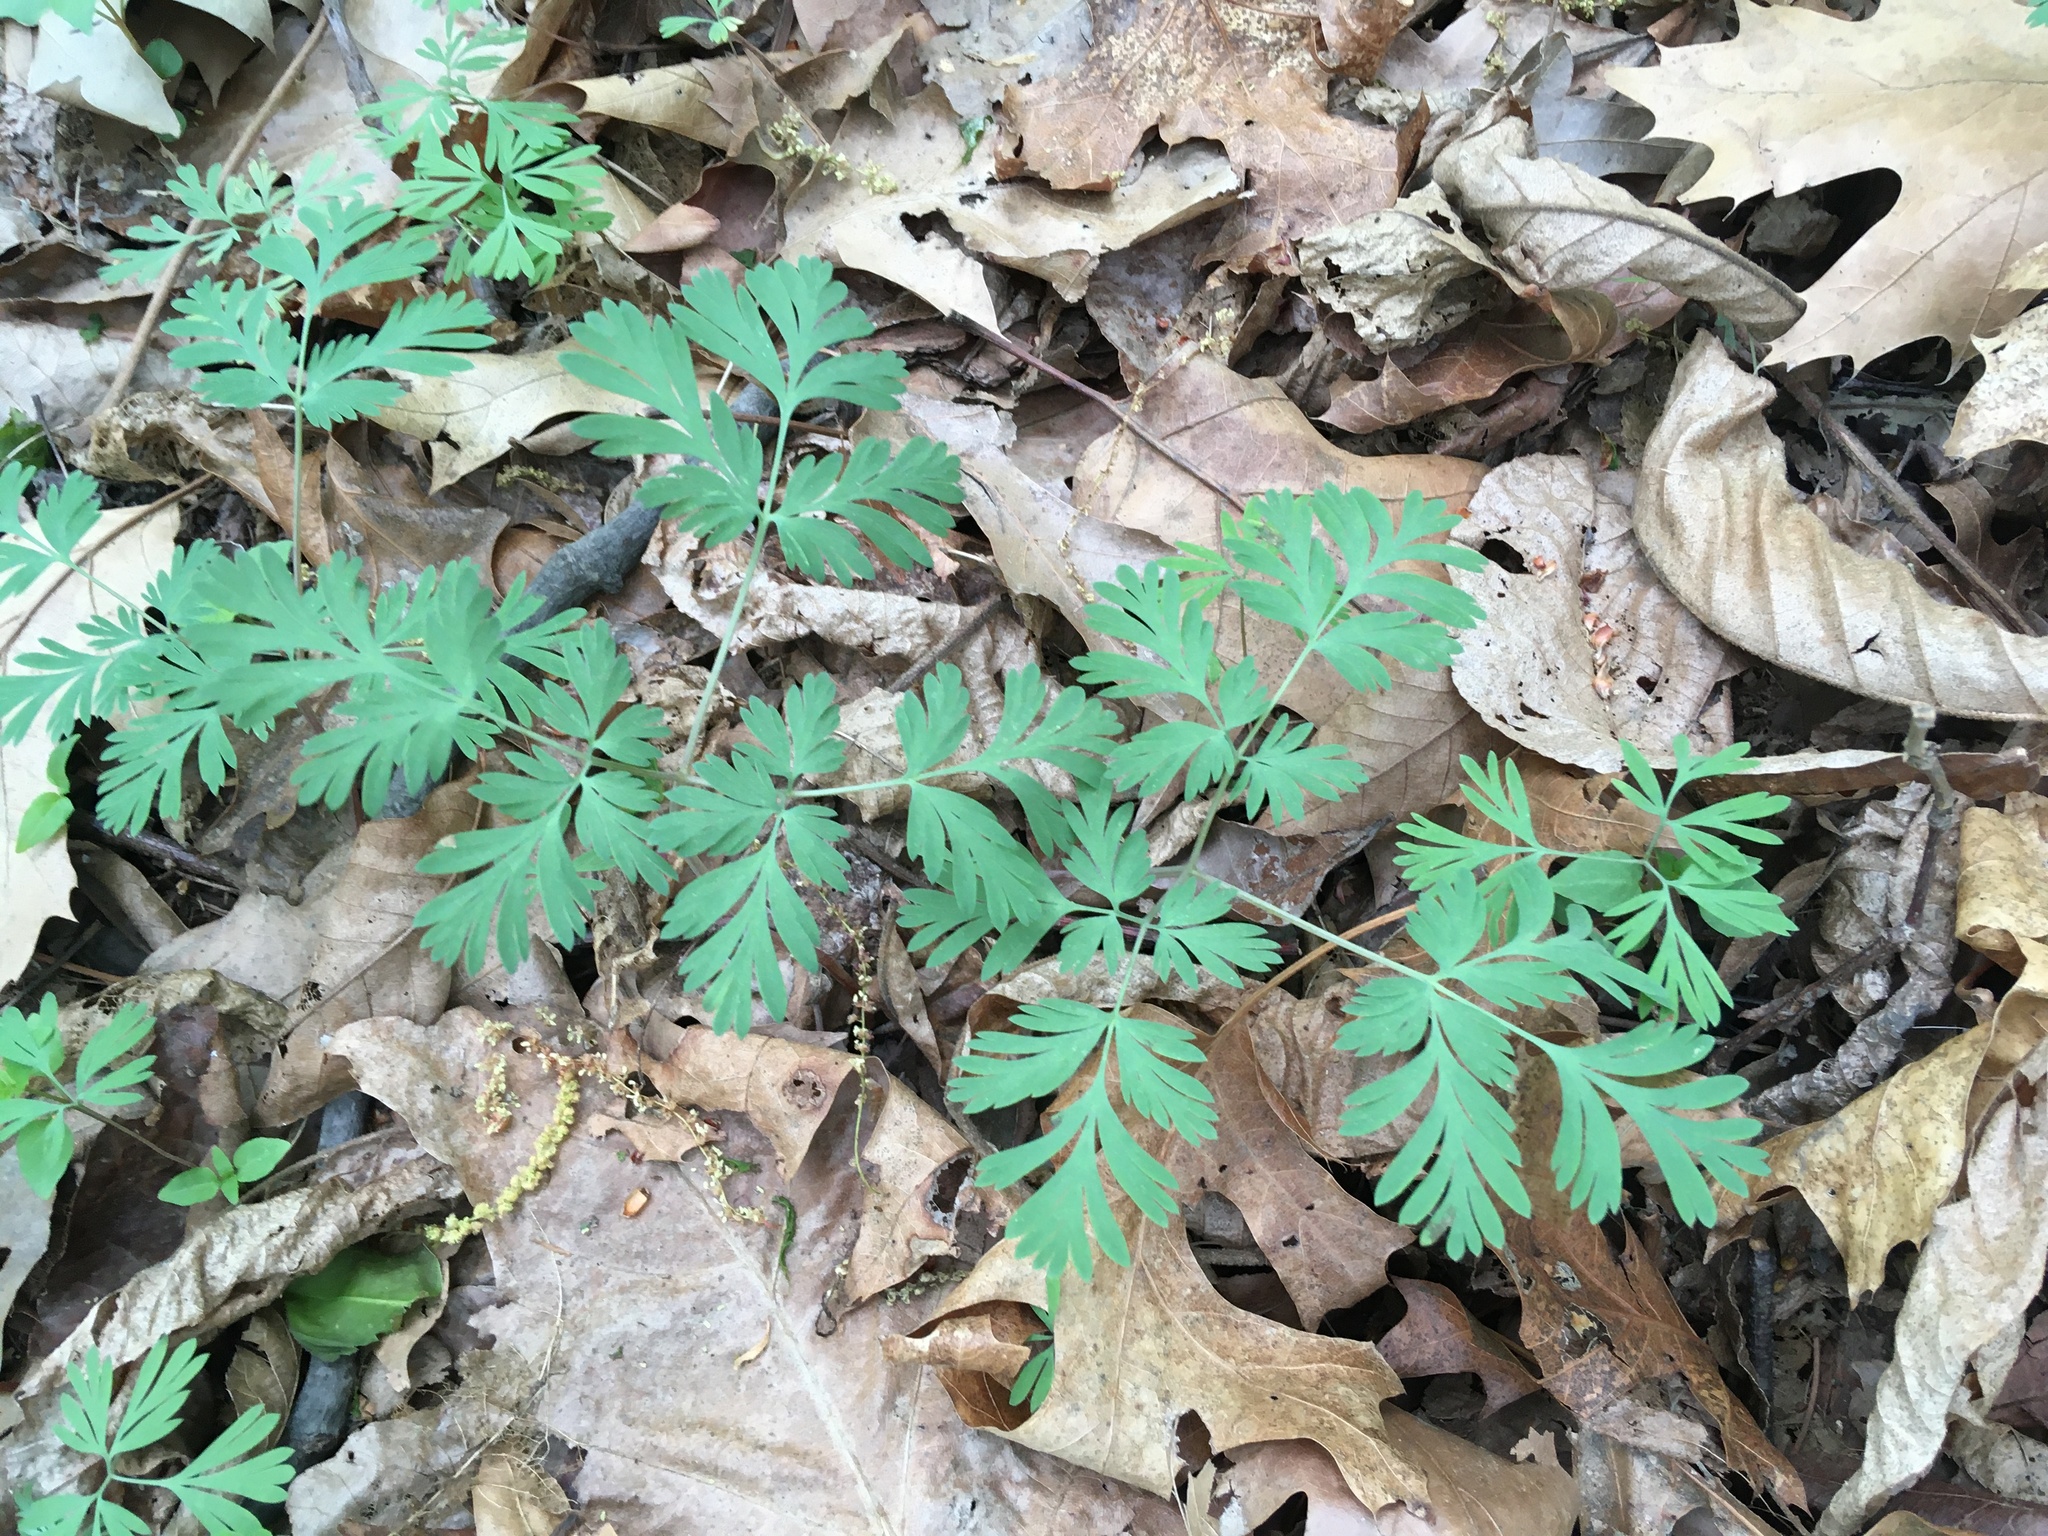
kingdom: Plantae
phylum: Tracheophyta
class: Magnoliopsida
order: Ranunculales
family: Papaveraceae
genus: Dicentra
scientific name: Dicentra cucullaria
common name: Dutchman's breeches
